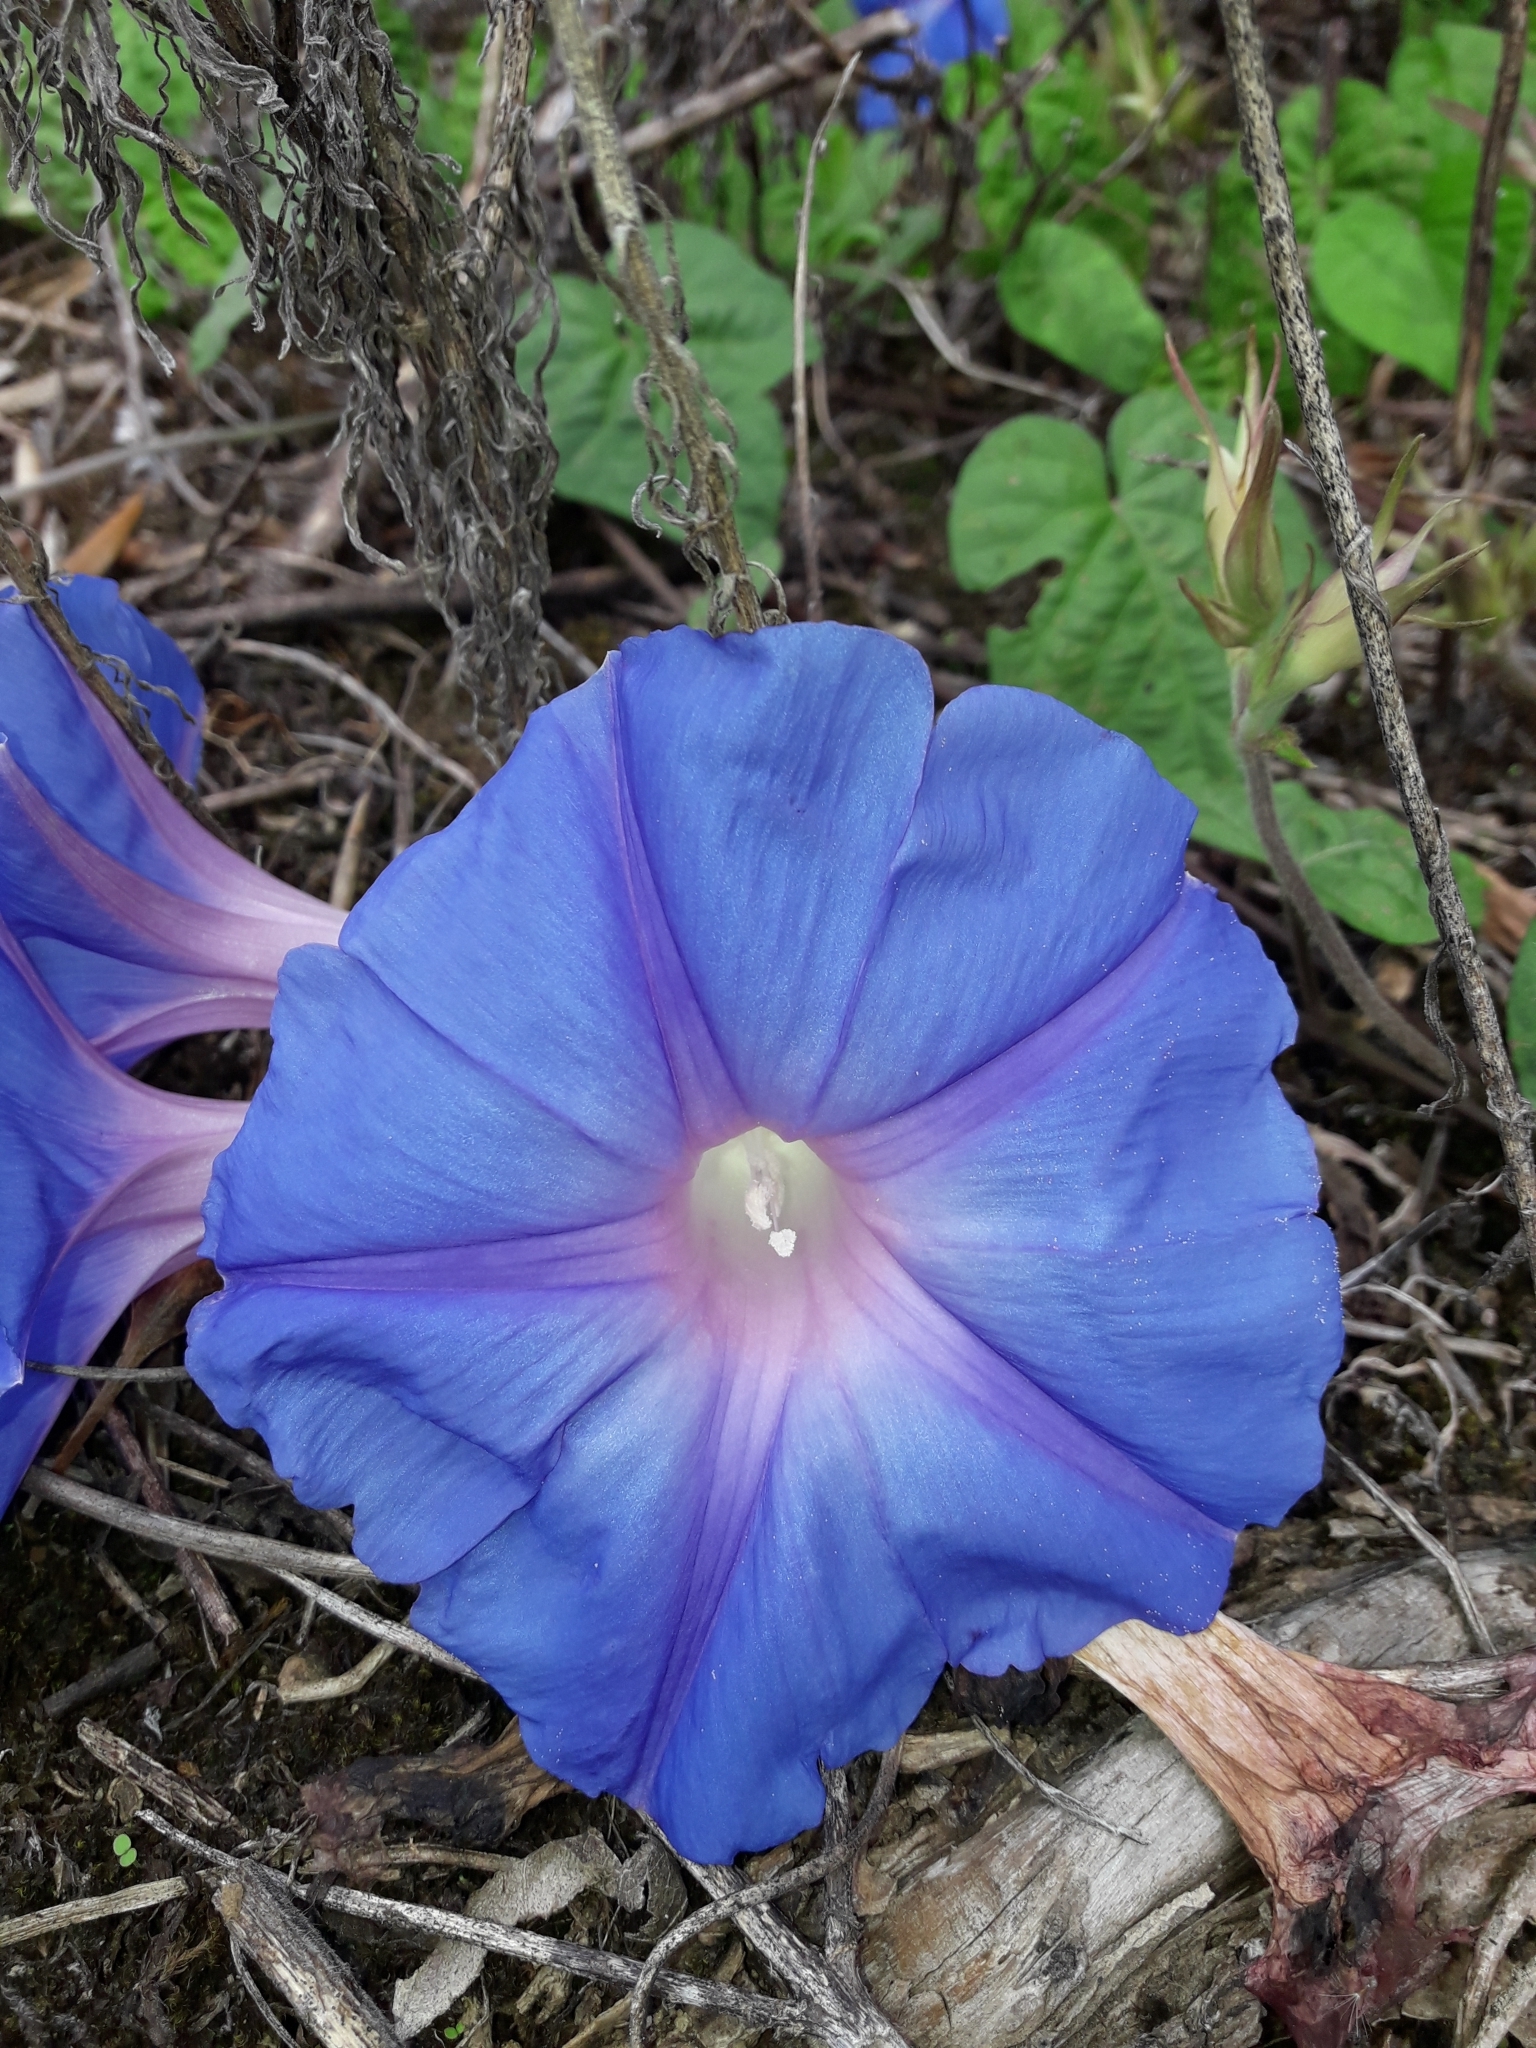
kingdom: Plantae
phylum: Tracheophyta
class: Magnoliopsida
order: Solanales
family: Convolvulaceae
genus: Ipomoea
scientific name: Ipomoea indica
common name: Blue dawnflower
